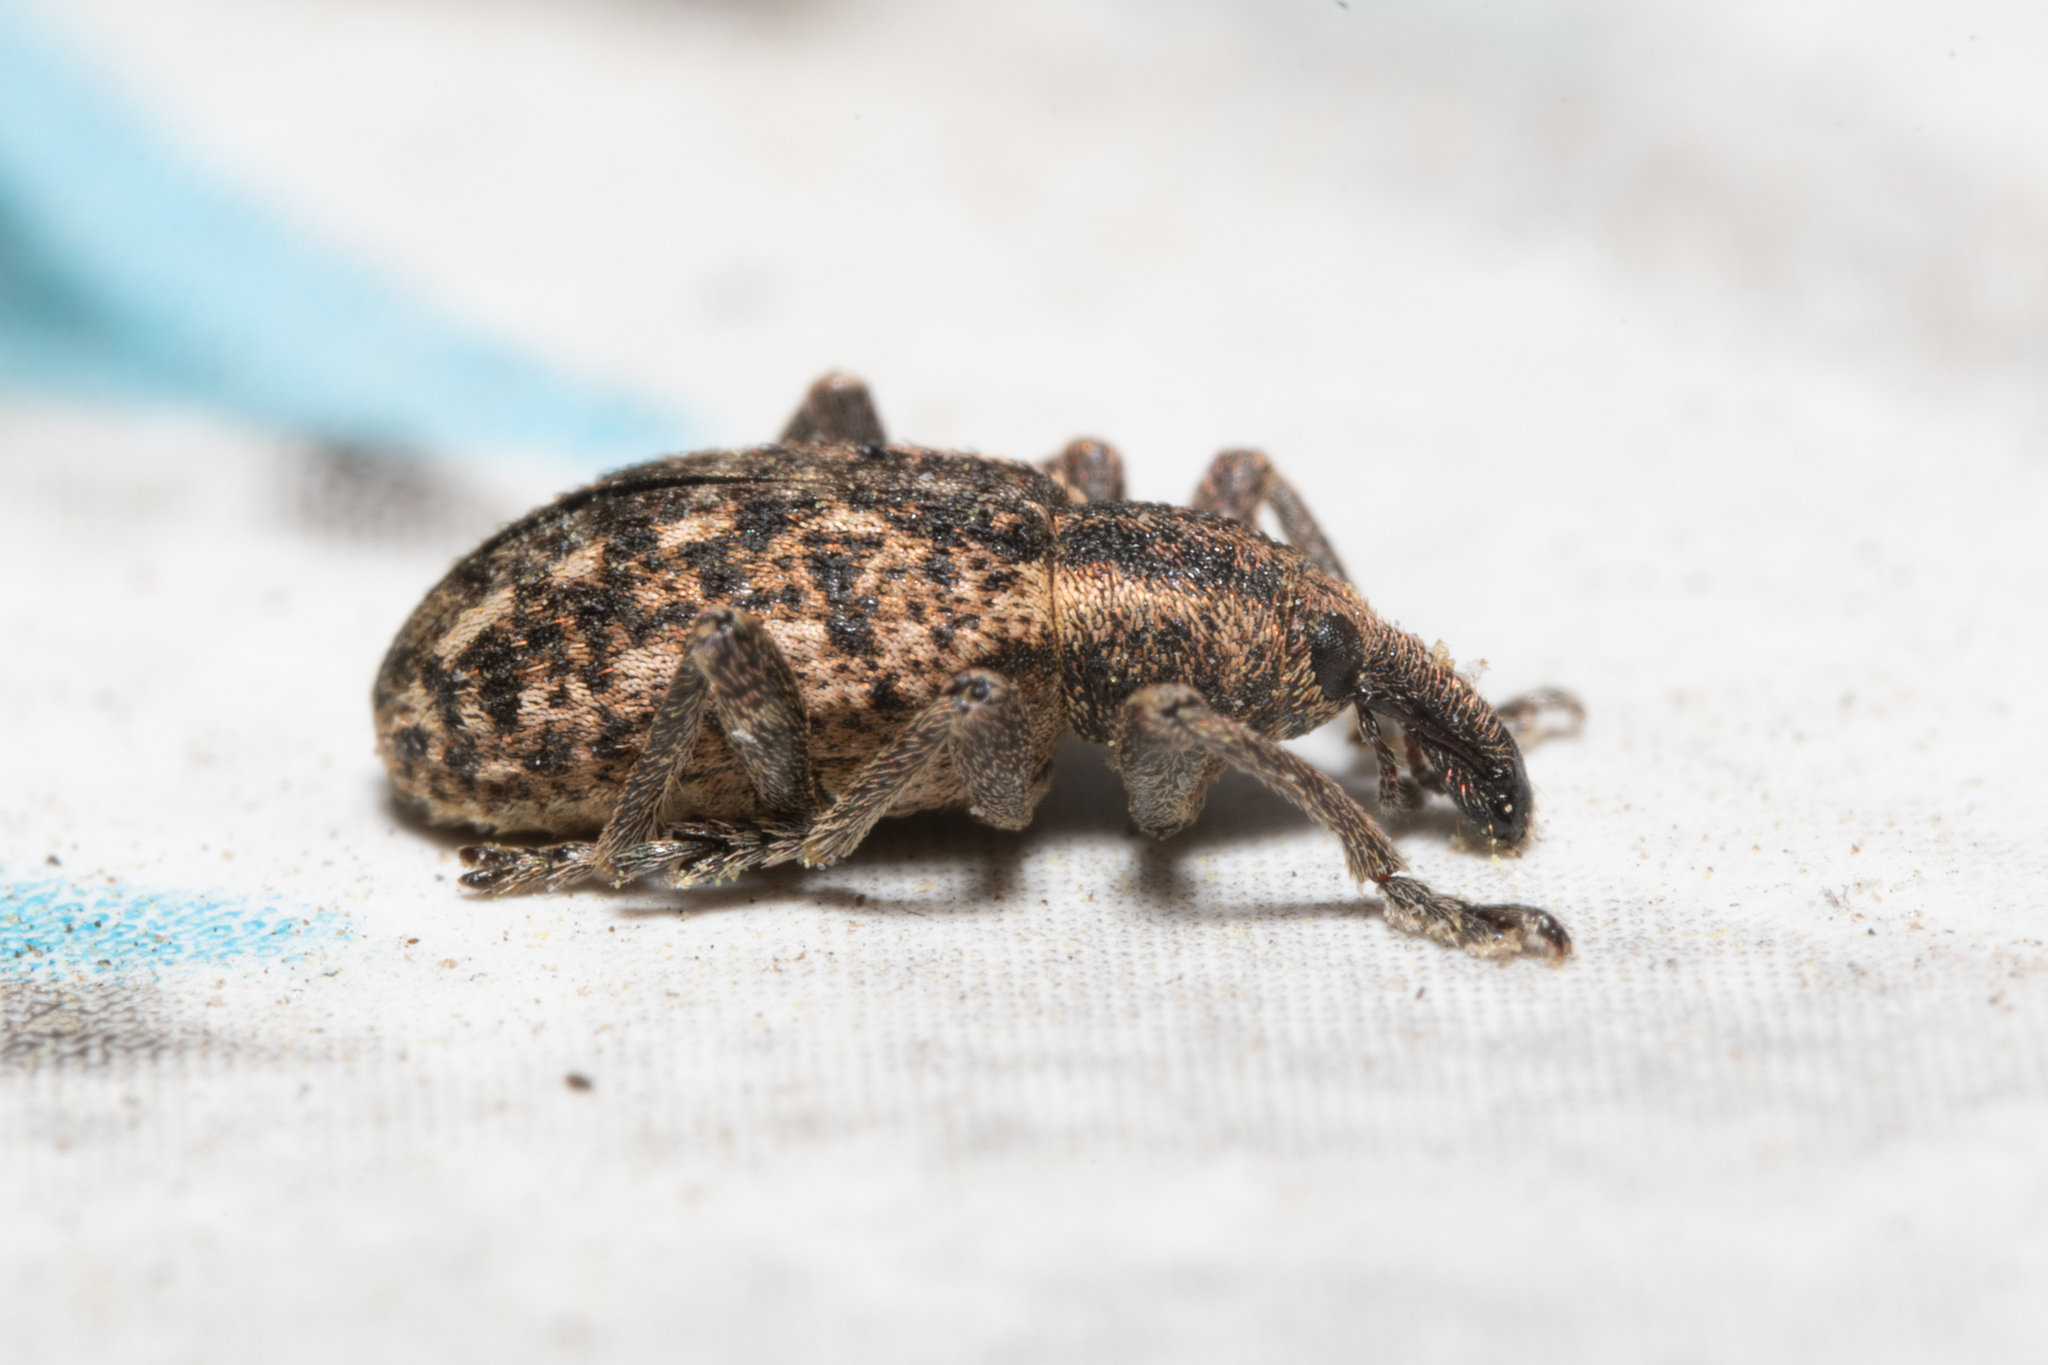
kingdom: Animalia
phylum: Arthropoda
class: Insecta
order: Coleoptera
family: Curculionidae
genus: Hypera
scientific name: Hypera conmaculata
